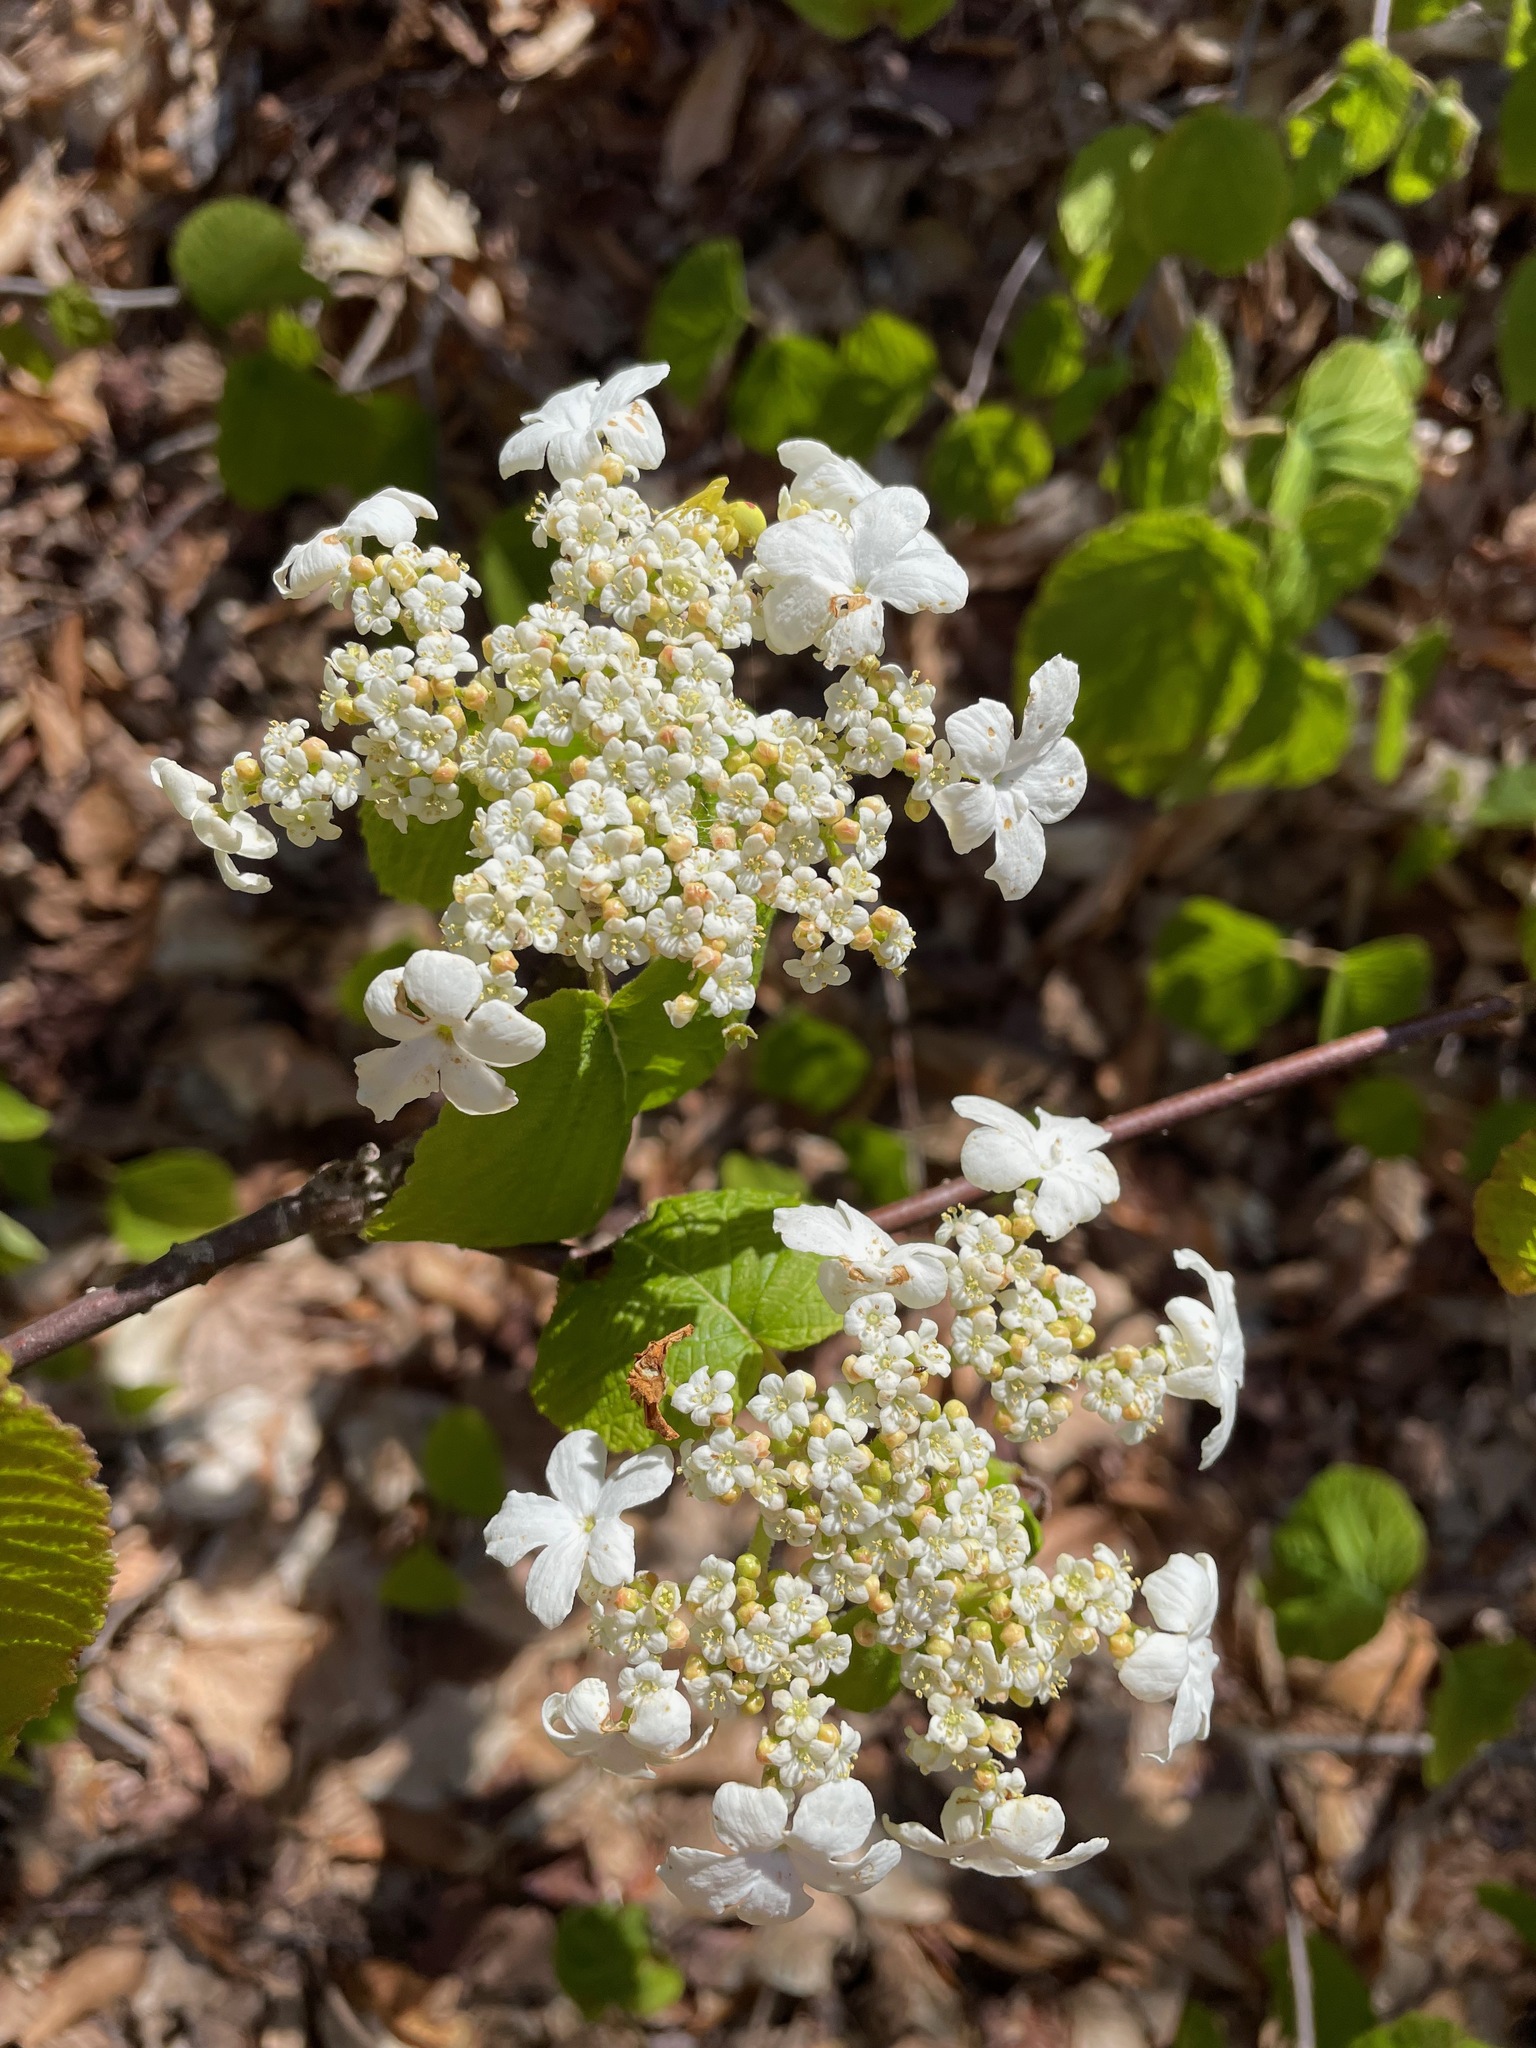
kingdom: Plantae
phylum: Tracheophyta
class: Magnoliopsida
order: Dipsacales
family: Viburnaceae
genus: Viburnum
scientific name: Viburnum lantanoides
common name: Hobblebush
